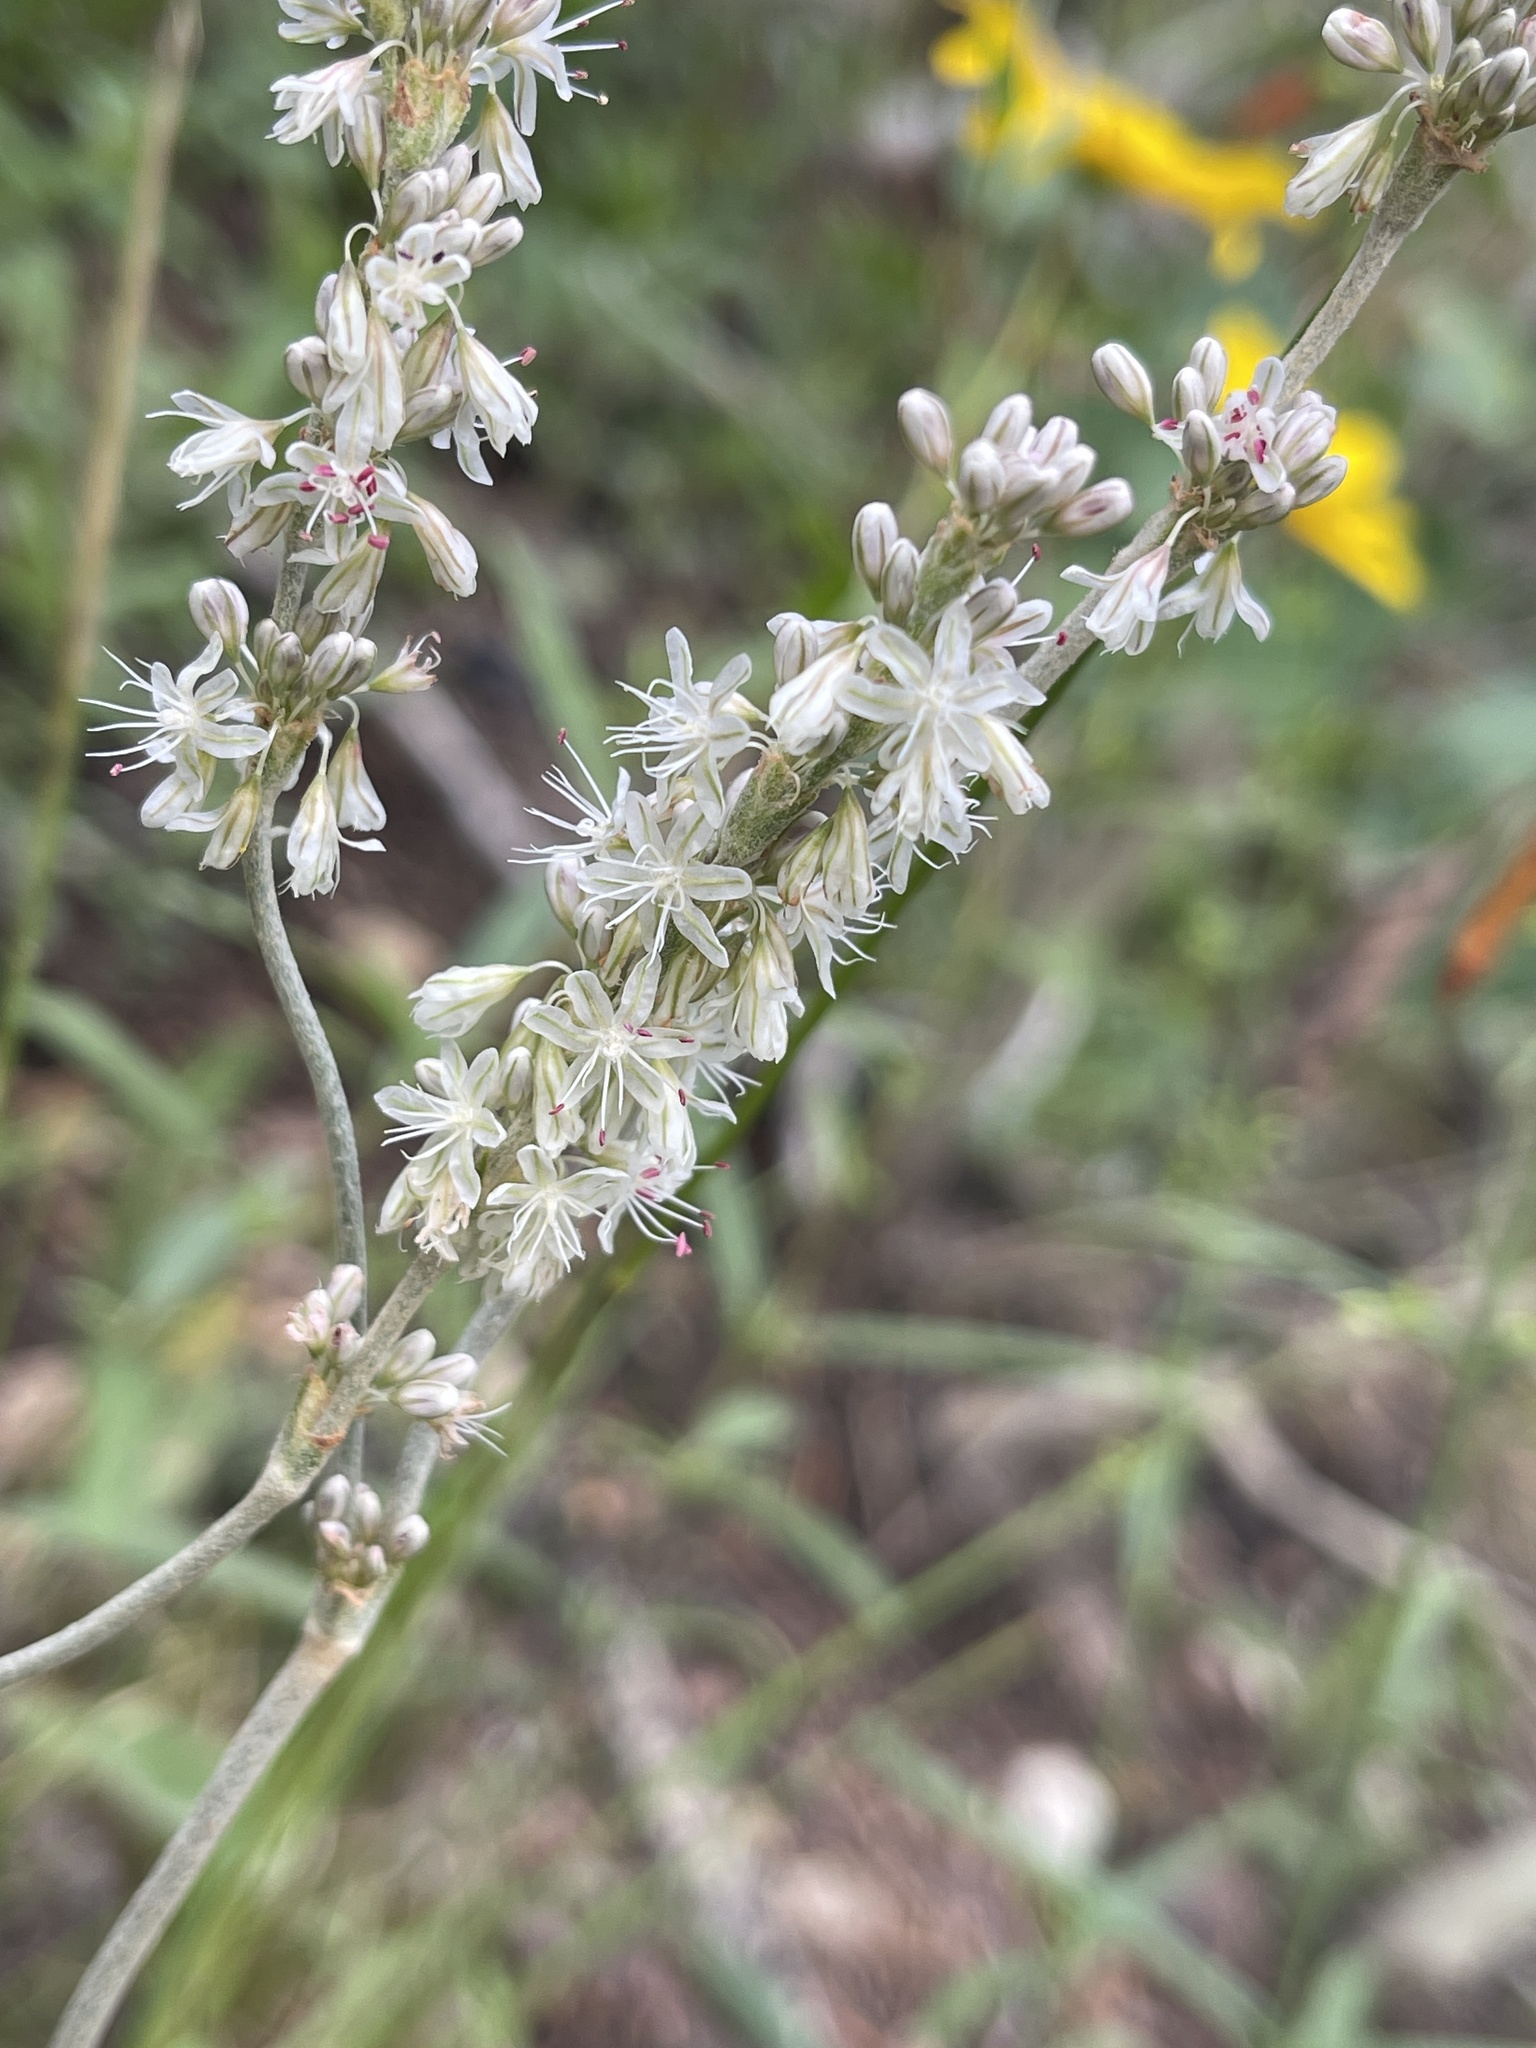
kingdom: Plantae
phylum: Tracheophyta
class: Magnoliopsida
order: Caryophyllales
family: Polygonaceae
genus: Eriogonum
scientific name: Eriogonum racemosum
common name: Redroot wild buckwheat
